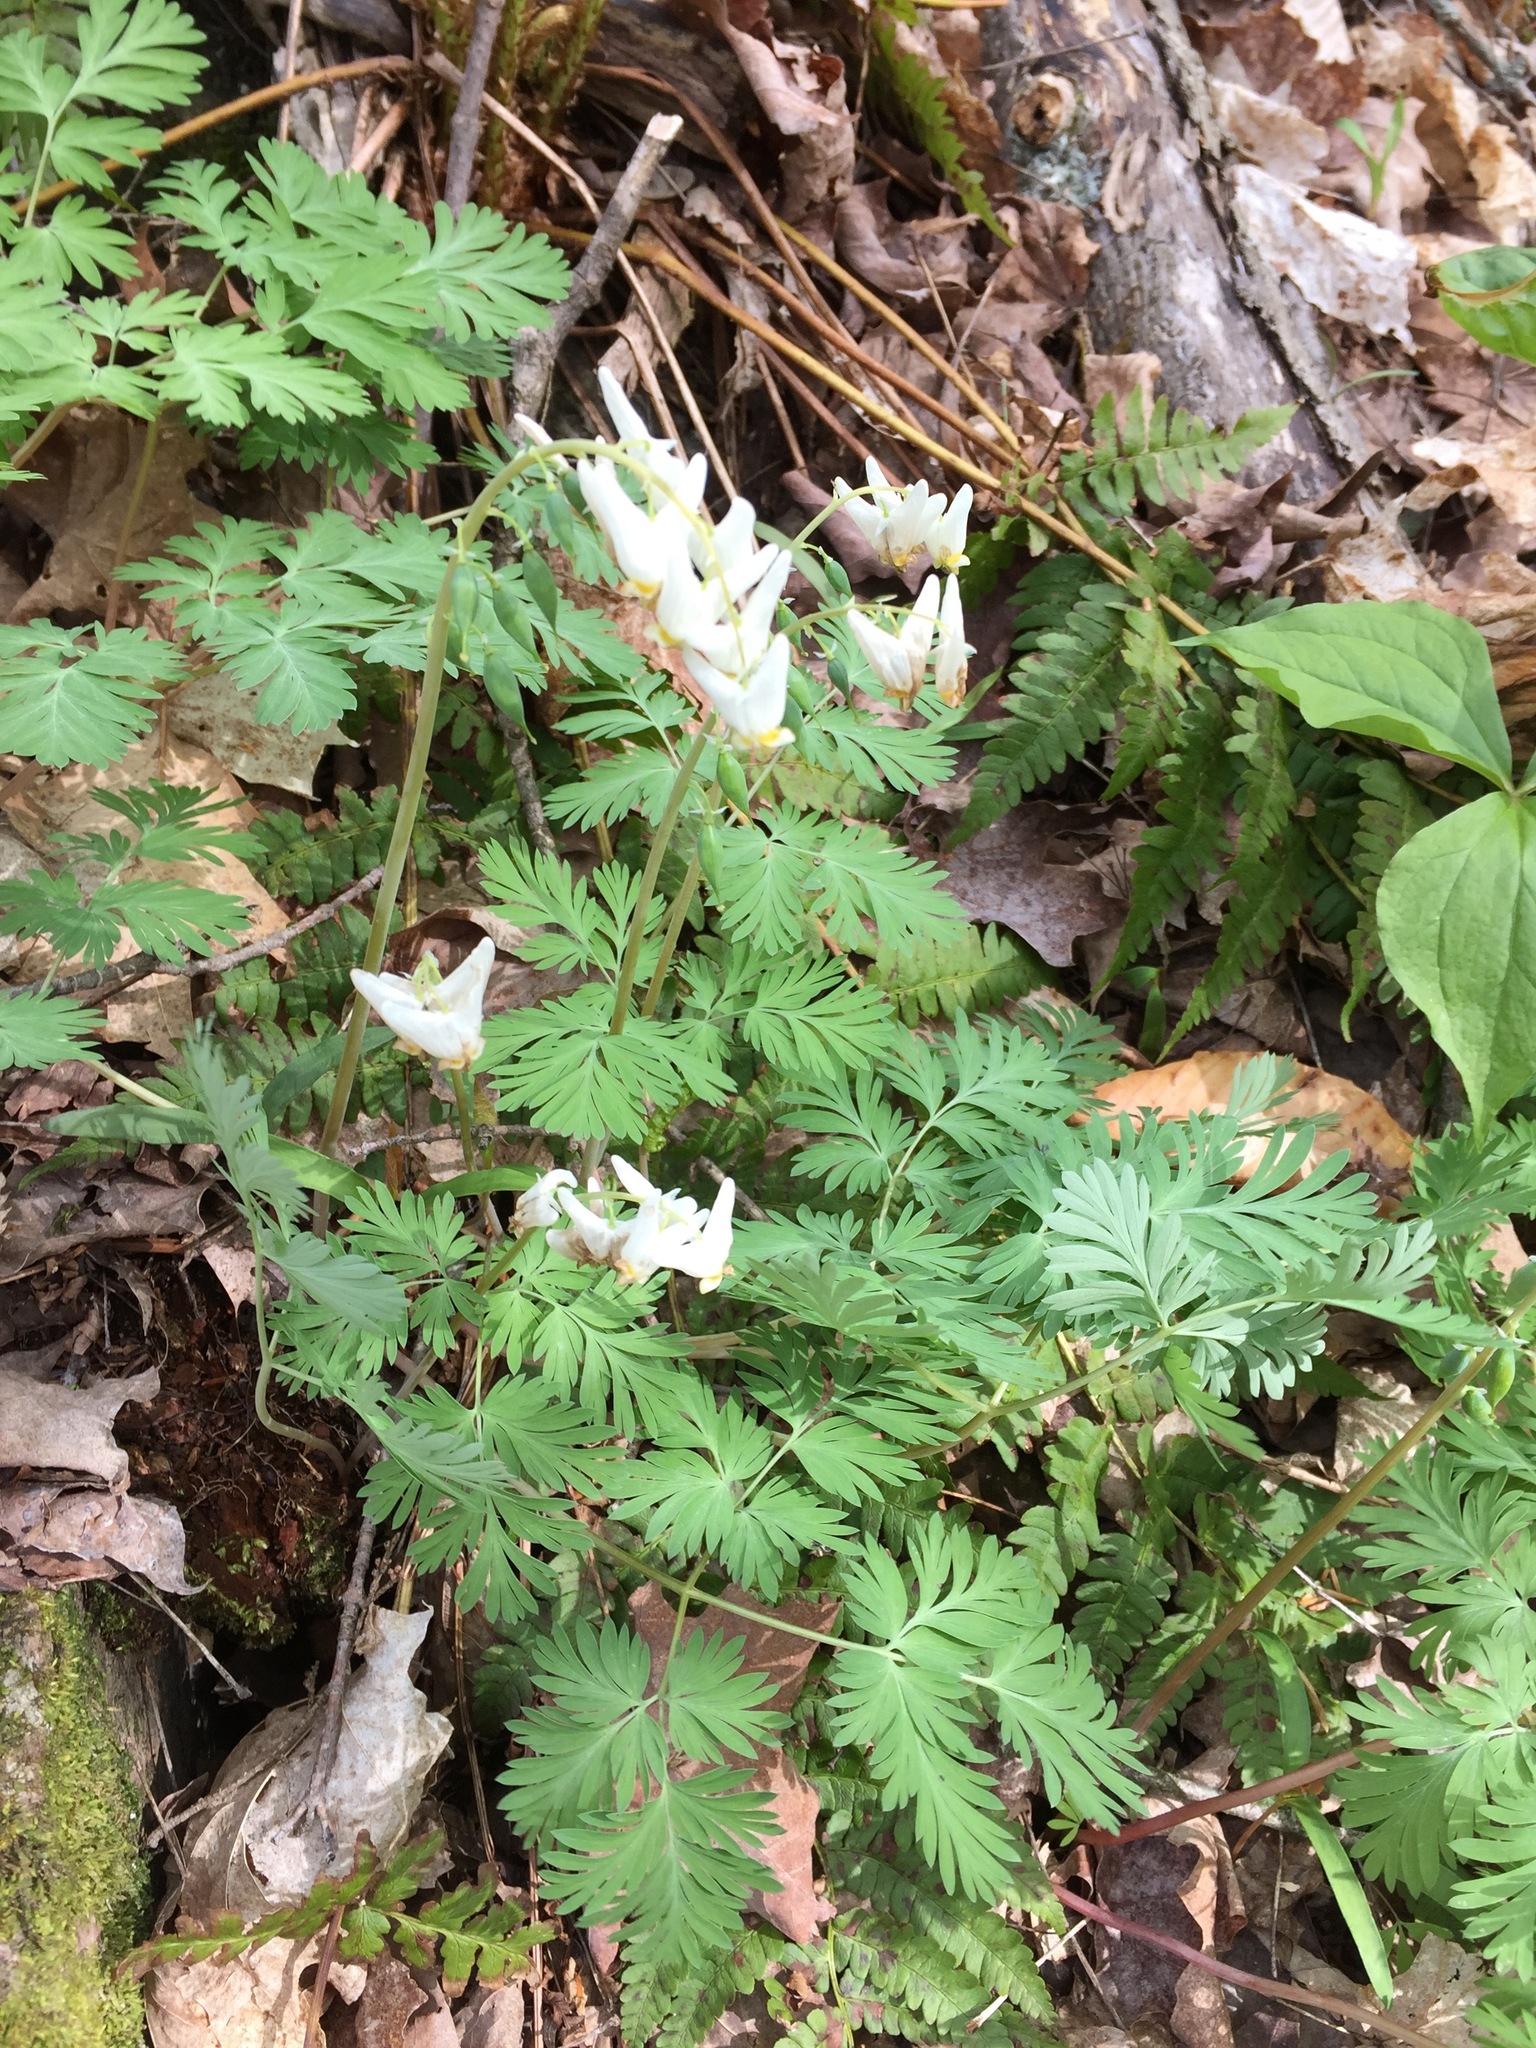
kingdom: Plantae
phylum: Tracheophyta
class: Magnoliopsida
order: Ranunculales
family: Papaveraceae
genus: Dicentra
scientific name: Dicentra cucullaria
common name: Dutchman's breeches
